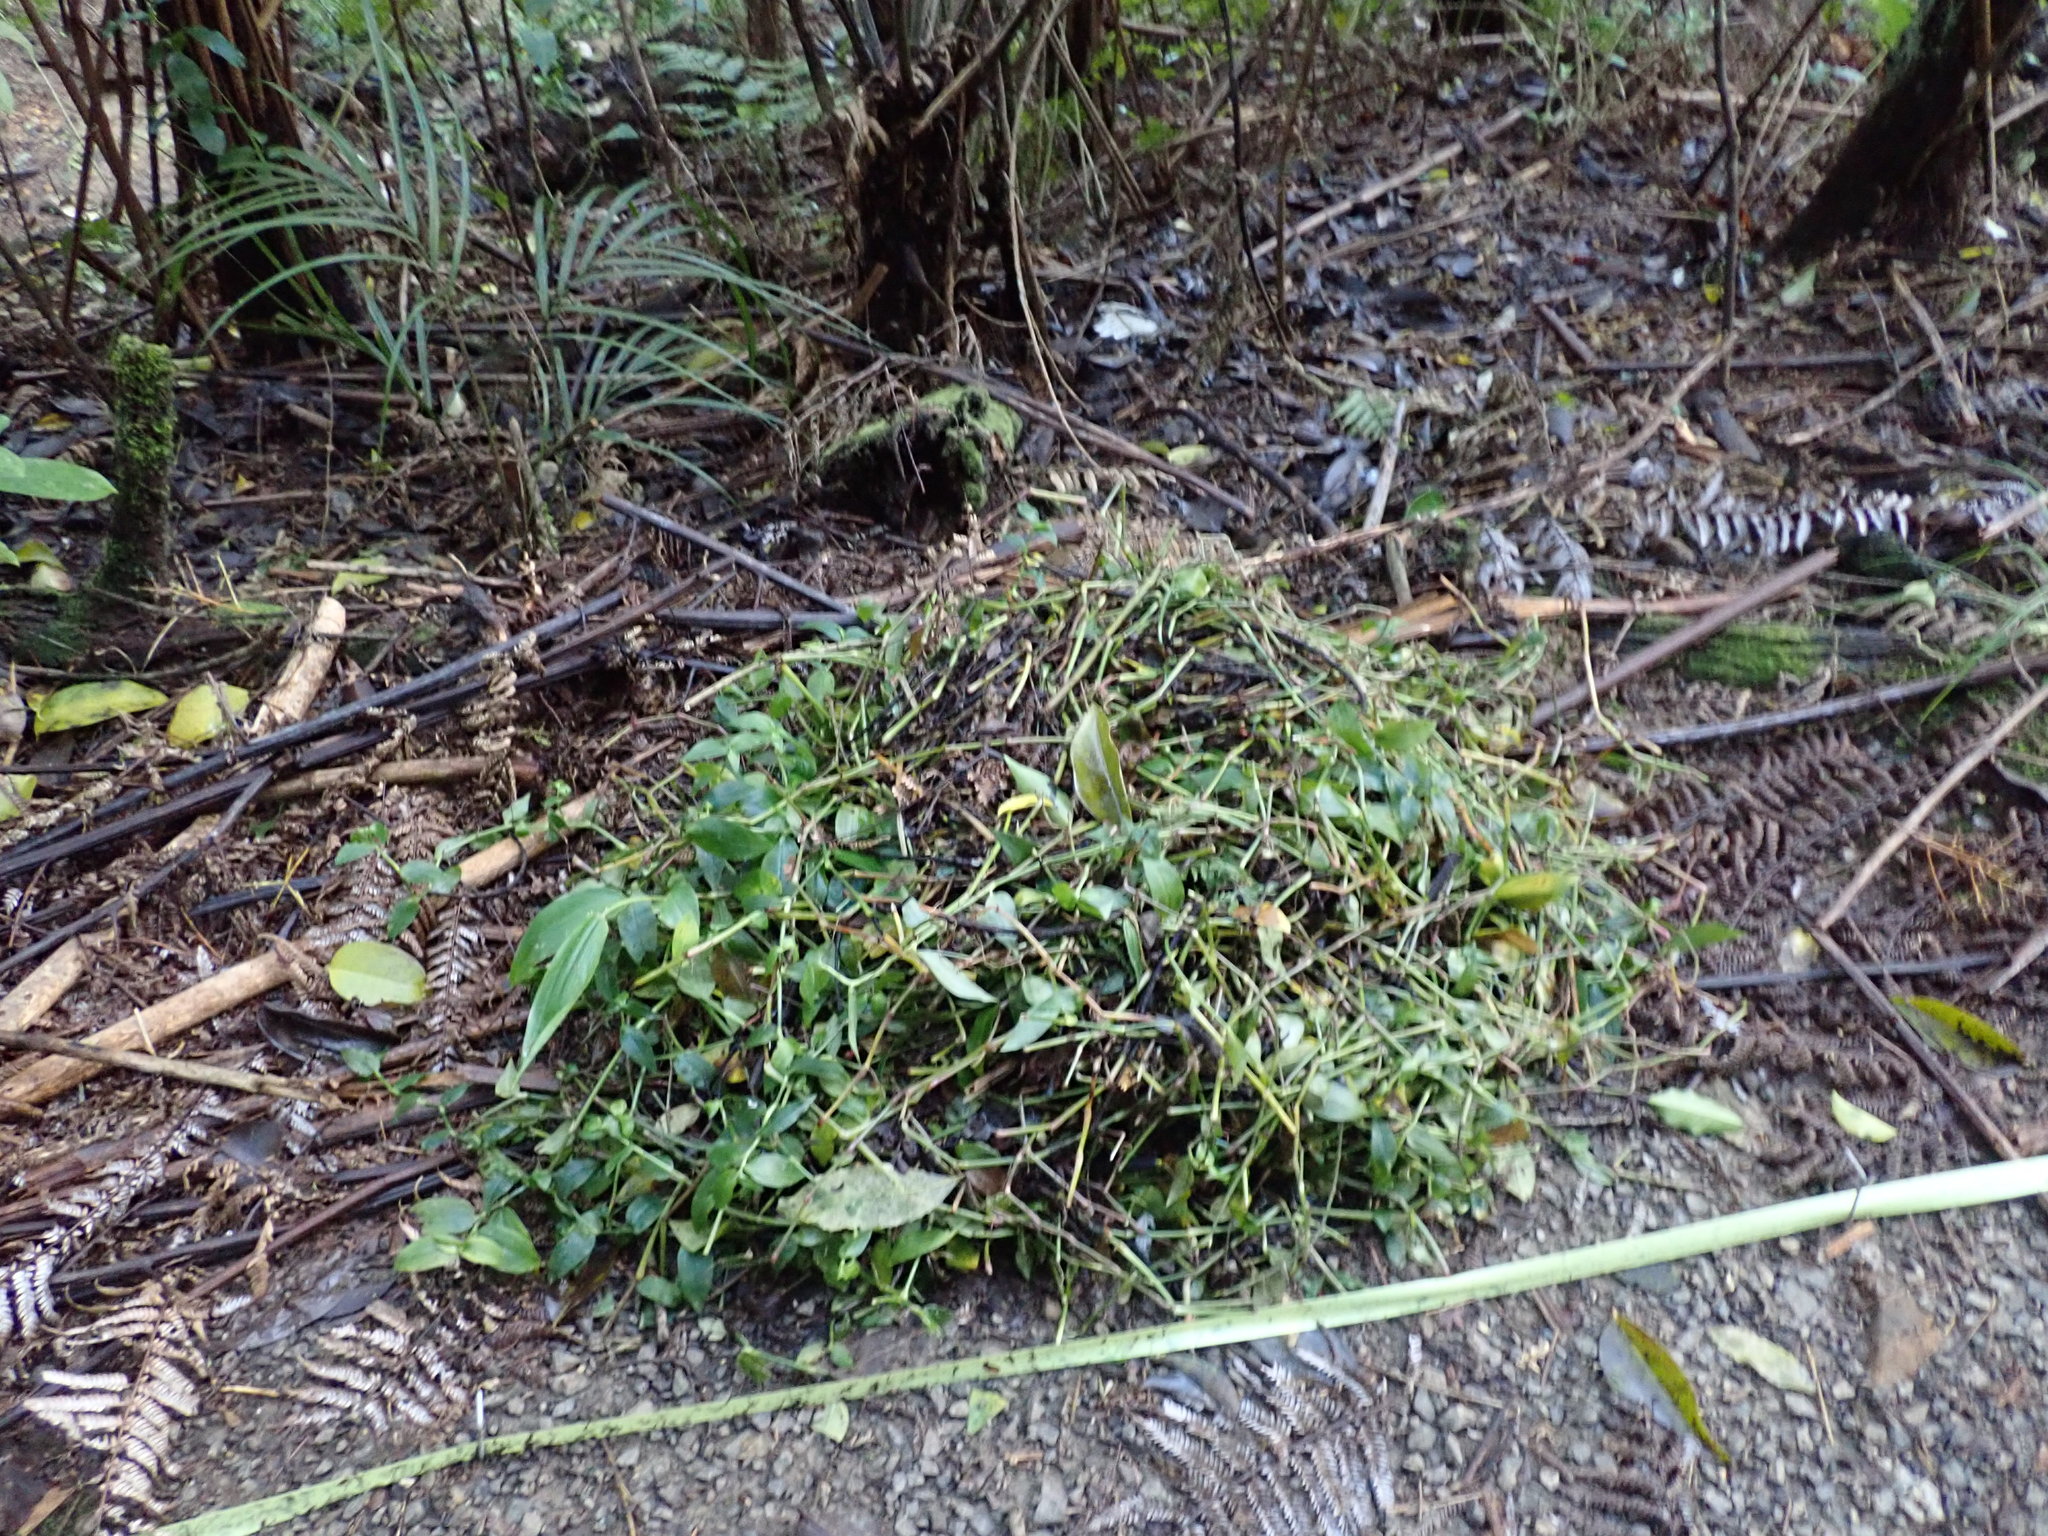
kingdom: Plantae
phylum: Tracheophyta
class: Liliopsida
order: Arecales
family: Arecaceae
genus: Rhopalostylis
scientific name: Rhopalostylis sapida
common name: Feather-duster palm
